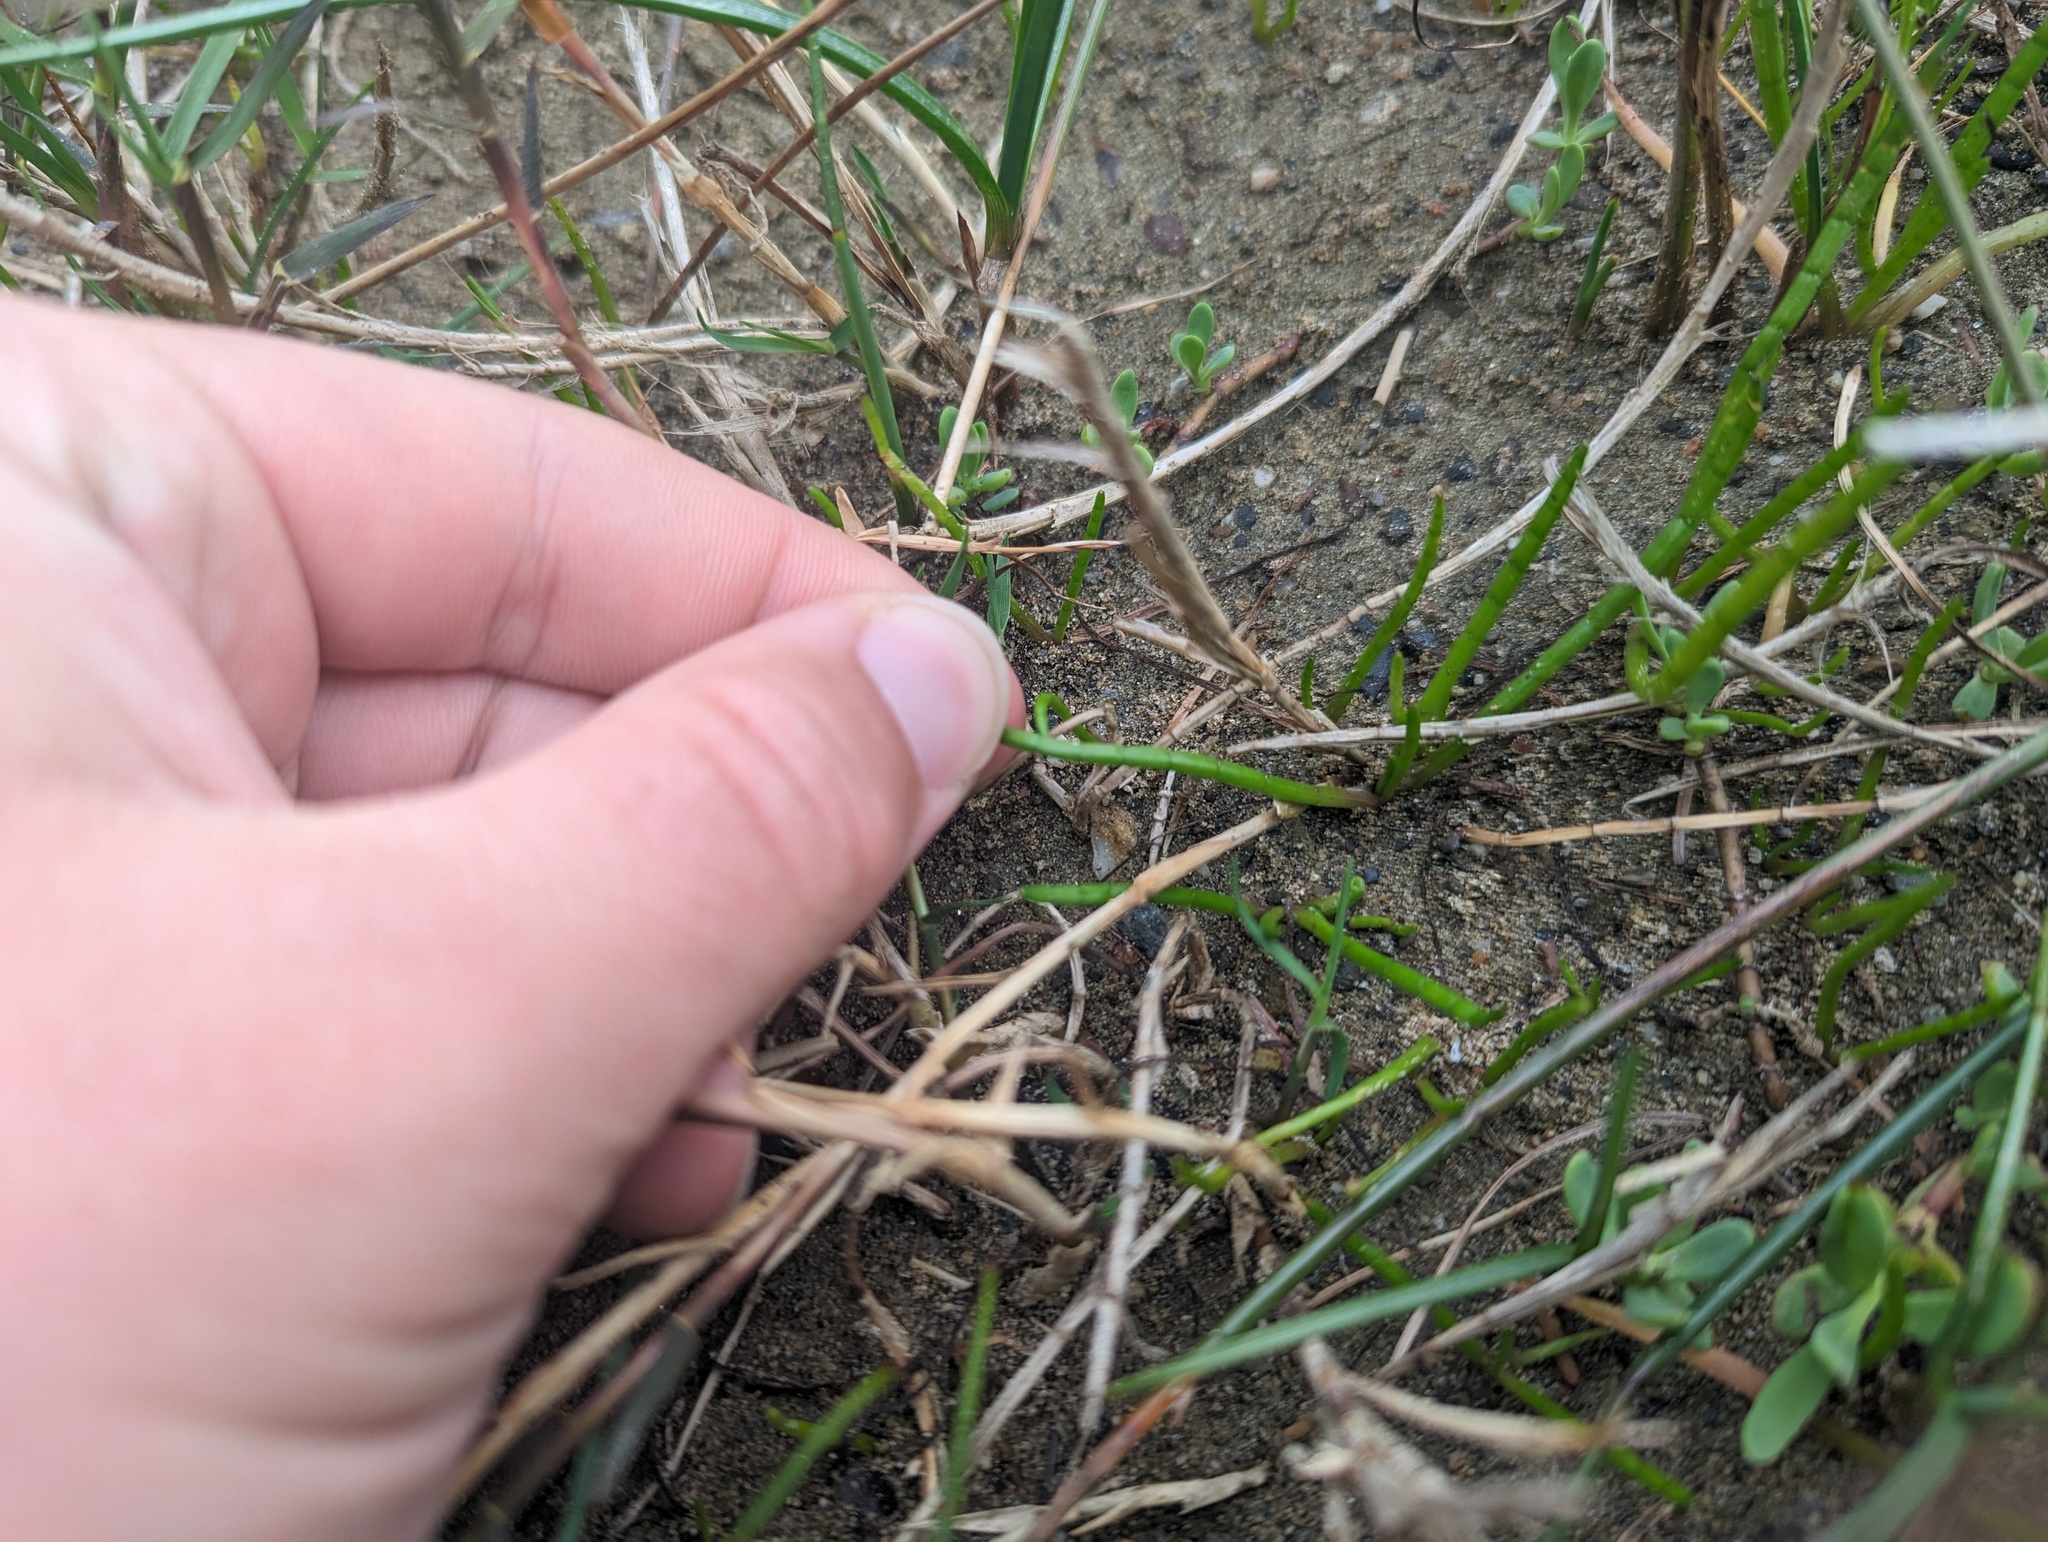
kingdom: Plantae
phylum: Tracheophyta
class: Magnoliopsida
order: Apiales
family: Apiaceae
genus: Lilaeopsis
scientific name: Lilaeopsis occidentalis
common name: Western grasswort
